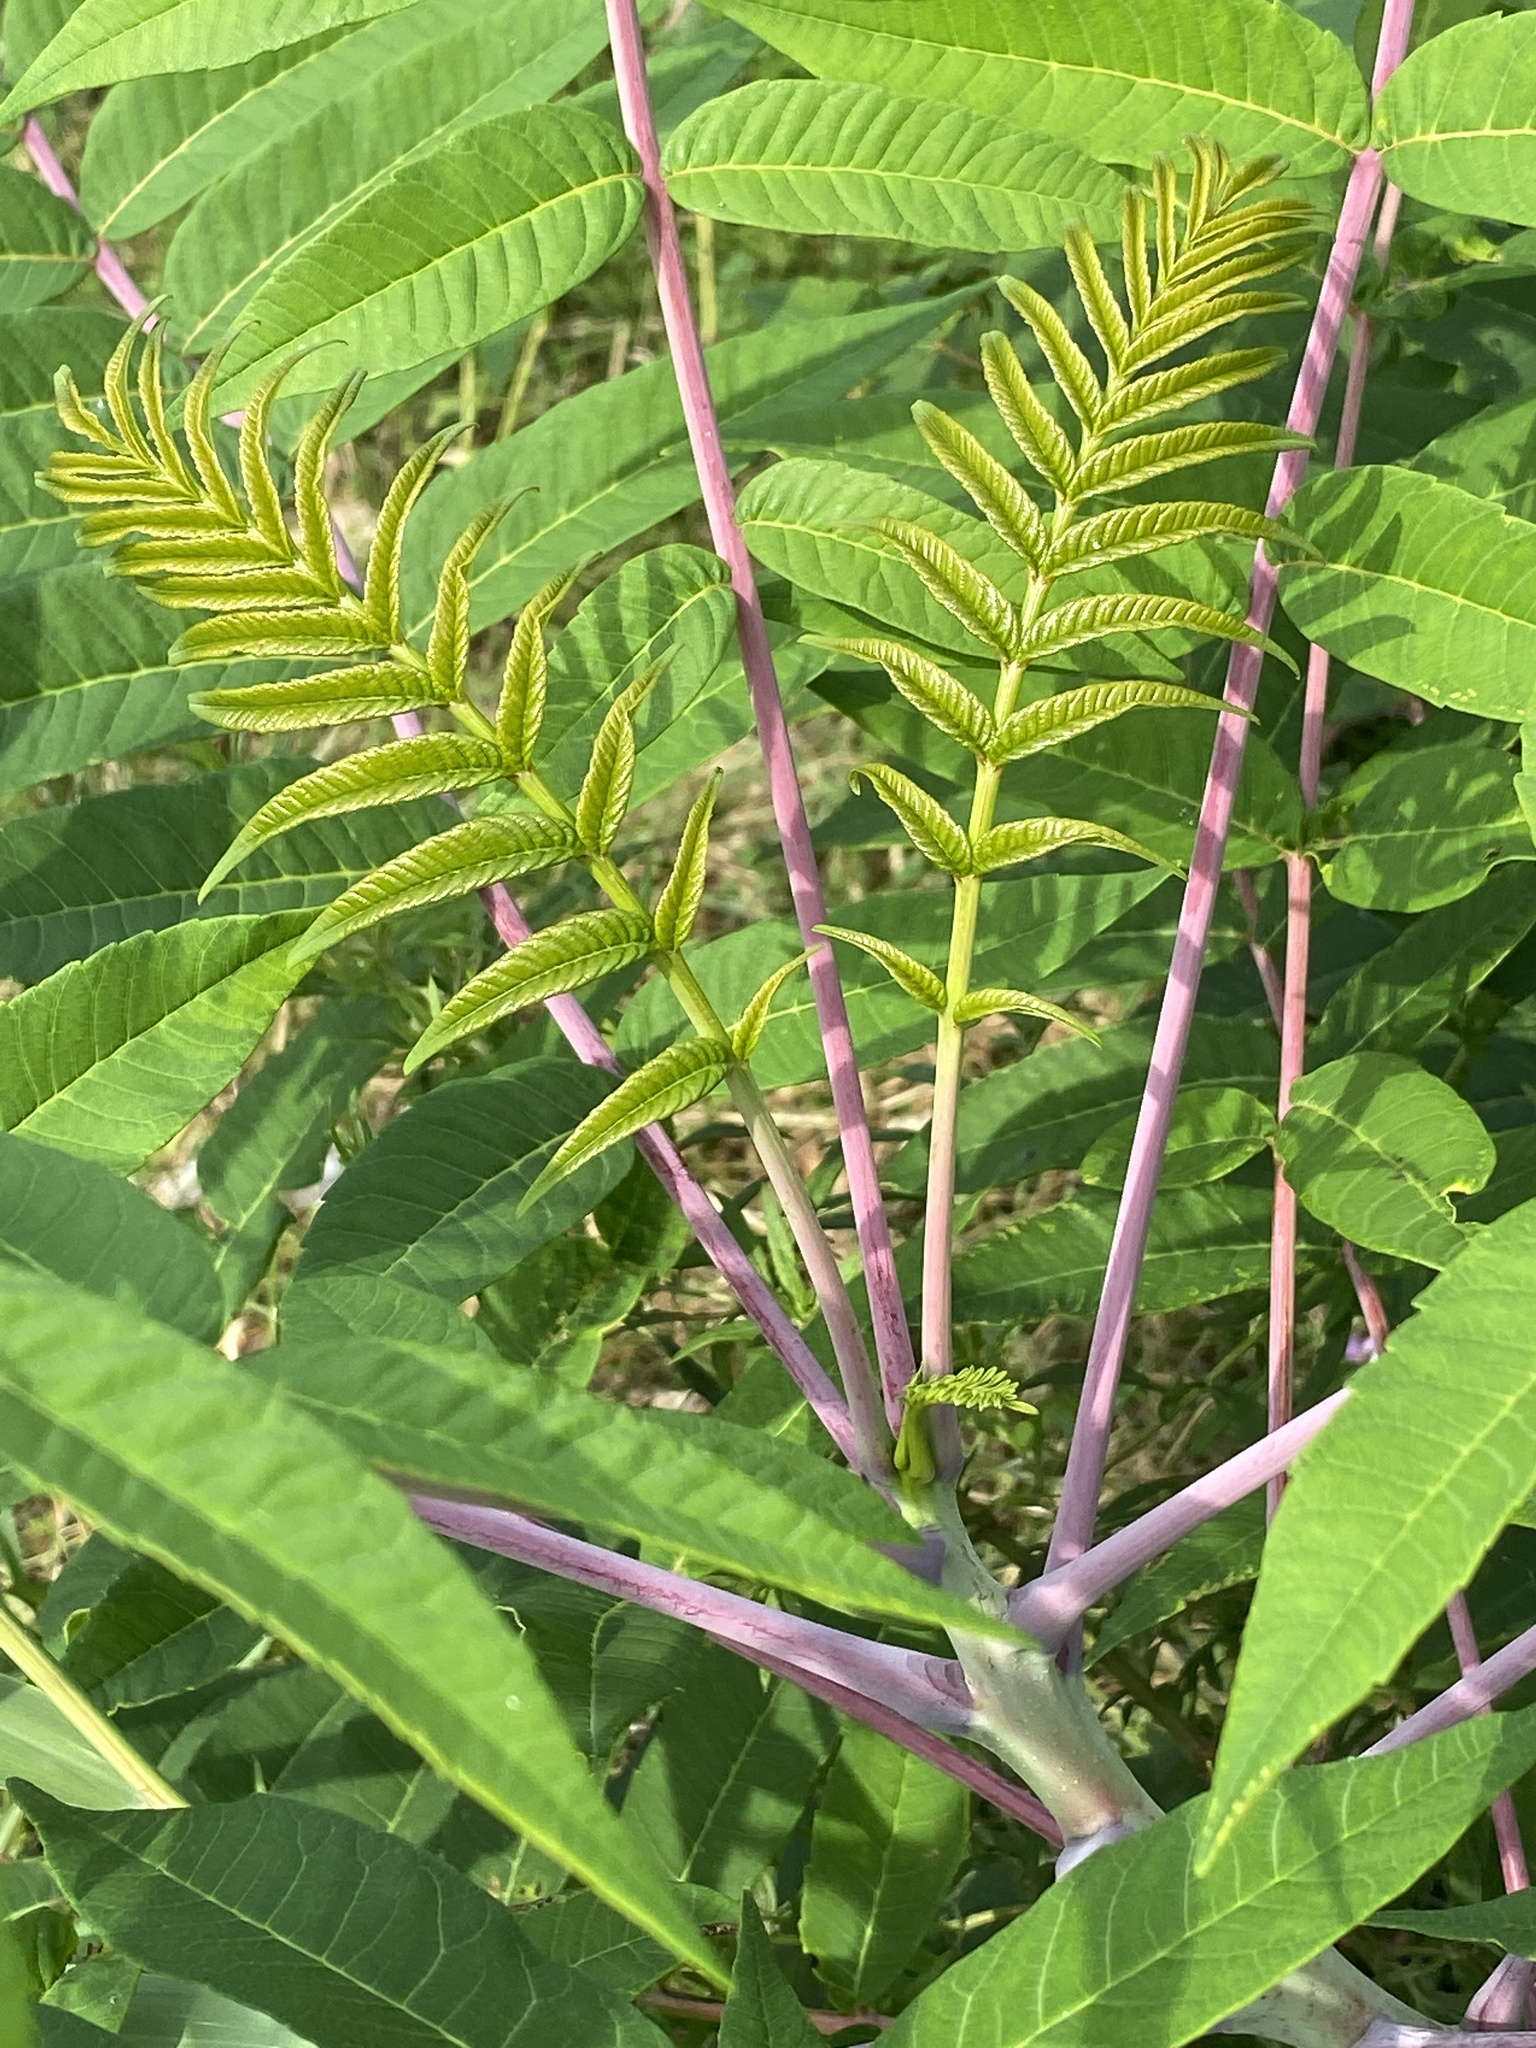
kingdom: Plantae
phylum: Tracheophyta
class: Magnoliopsida
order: Sapindales
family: Anacardiaceae
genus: Rhus
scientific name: Rhus glabra
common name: Scarlet sumac
